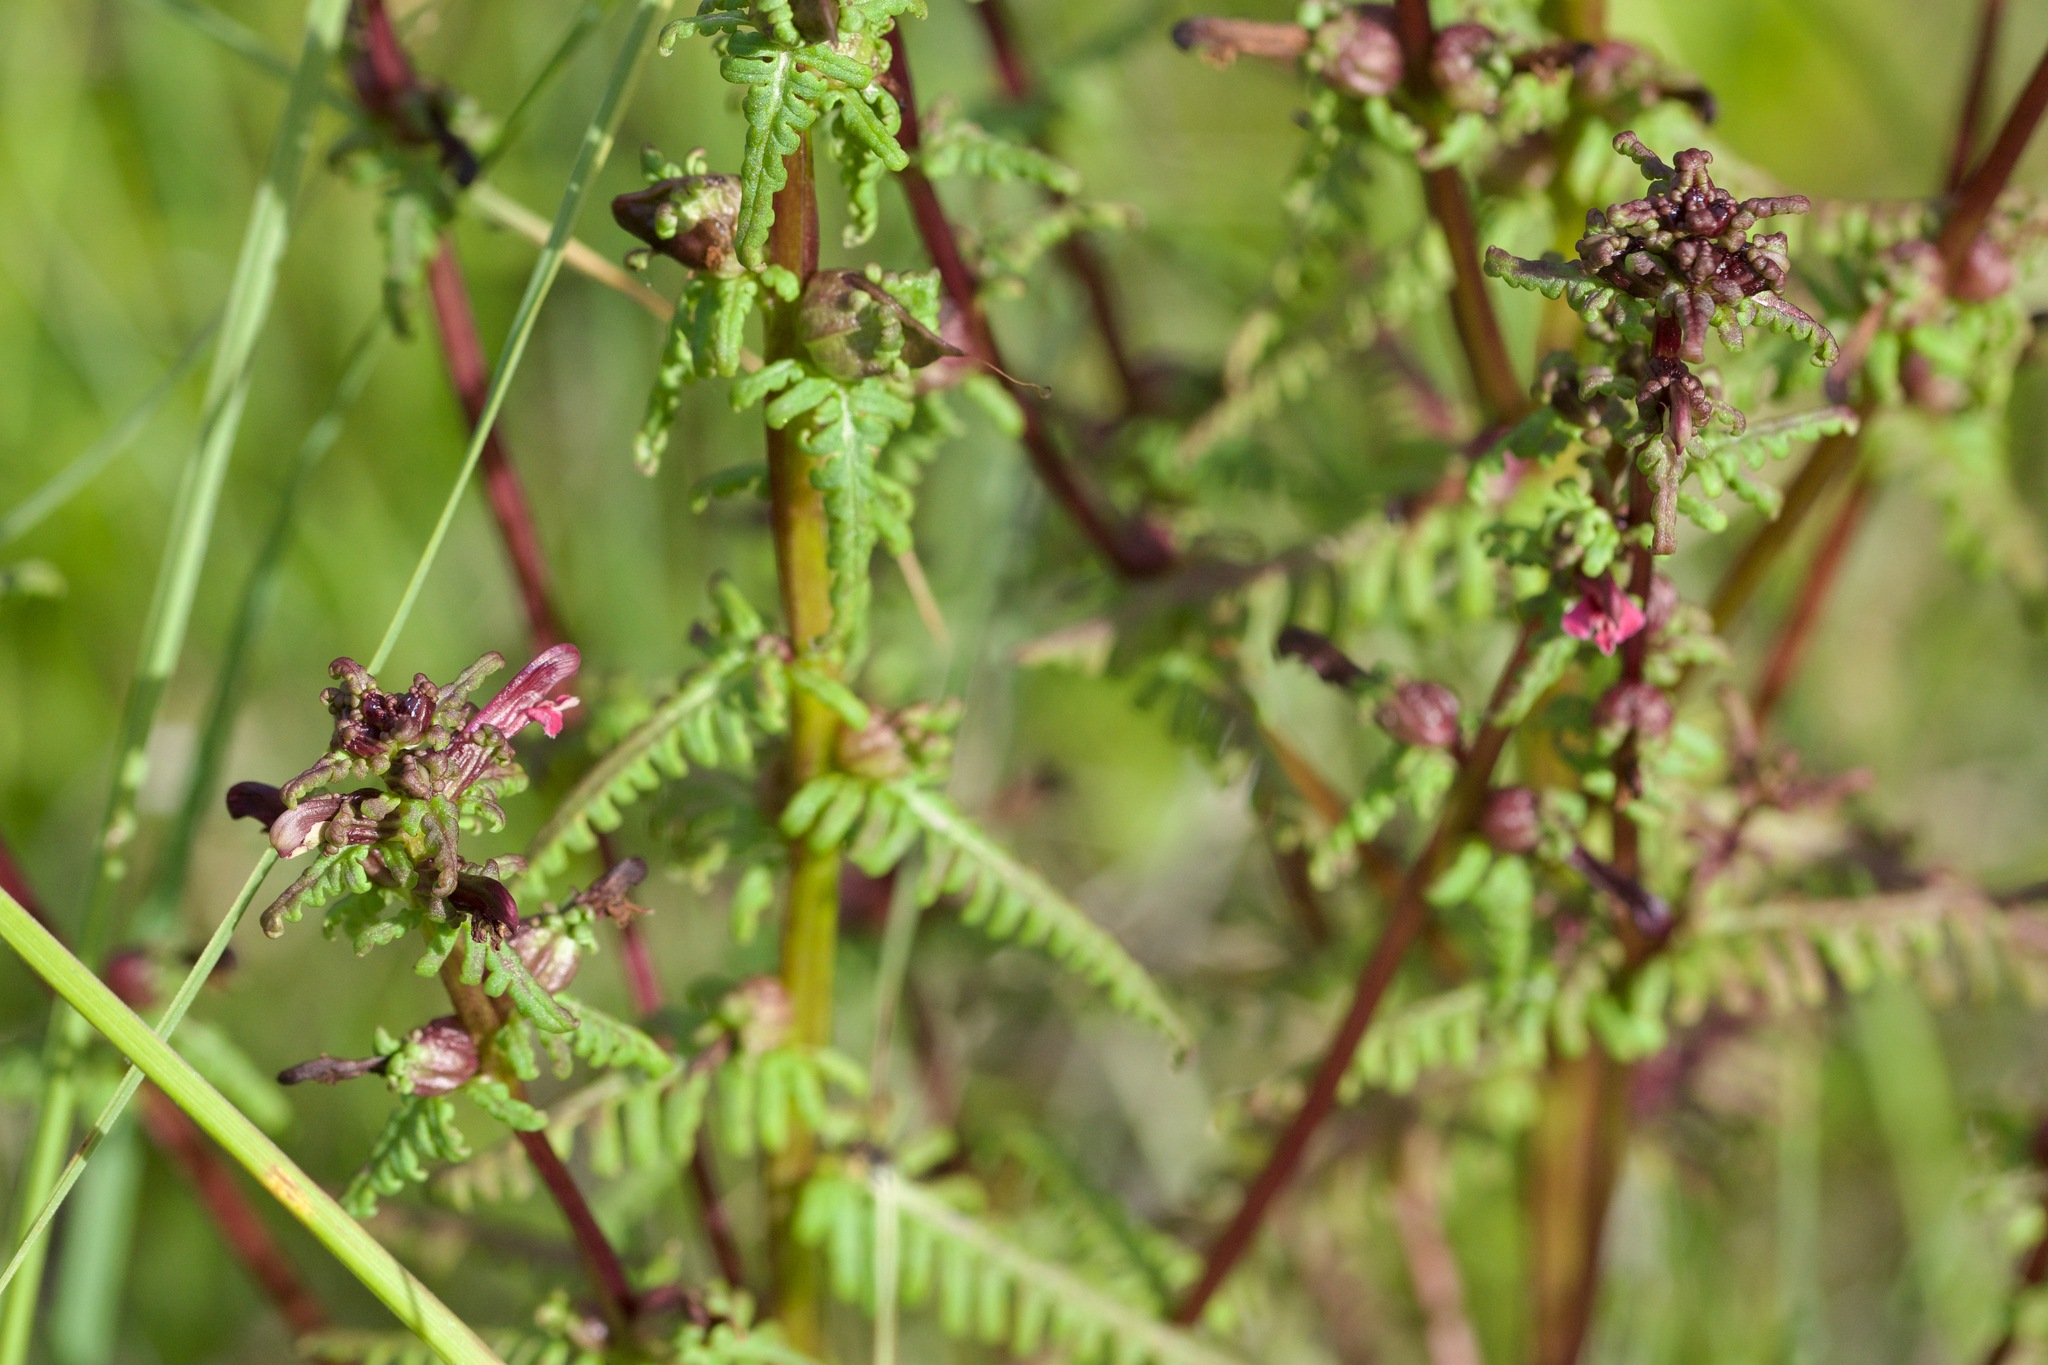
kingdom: Plantae
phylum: Tracheophyta
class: Magnoliopsida
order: Lamiales
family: Orobanchaceae
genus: Pedicularis
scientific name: Pedicularis parviflora
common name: Muskeg lousewort
